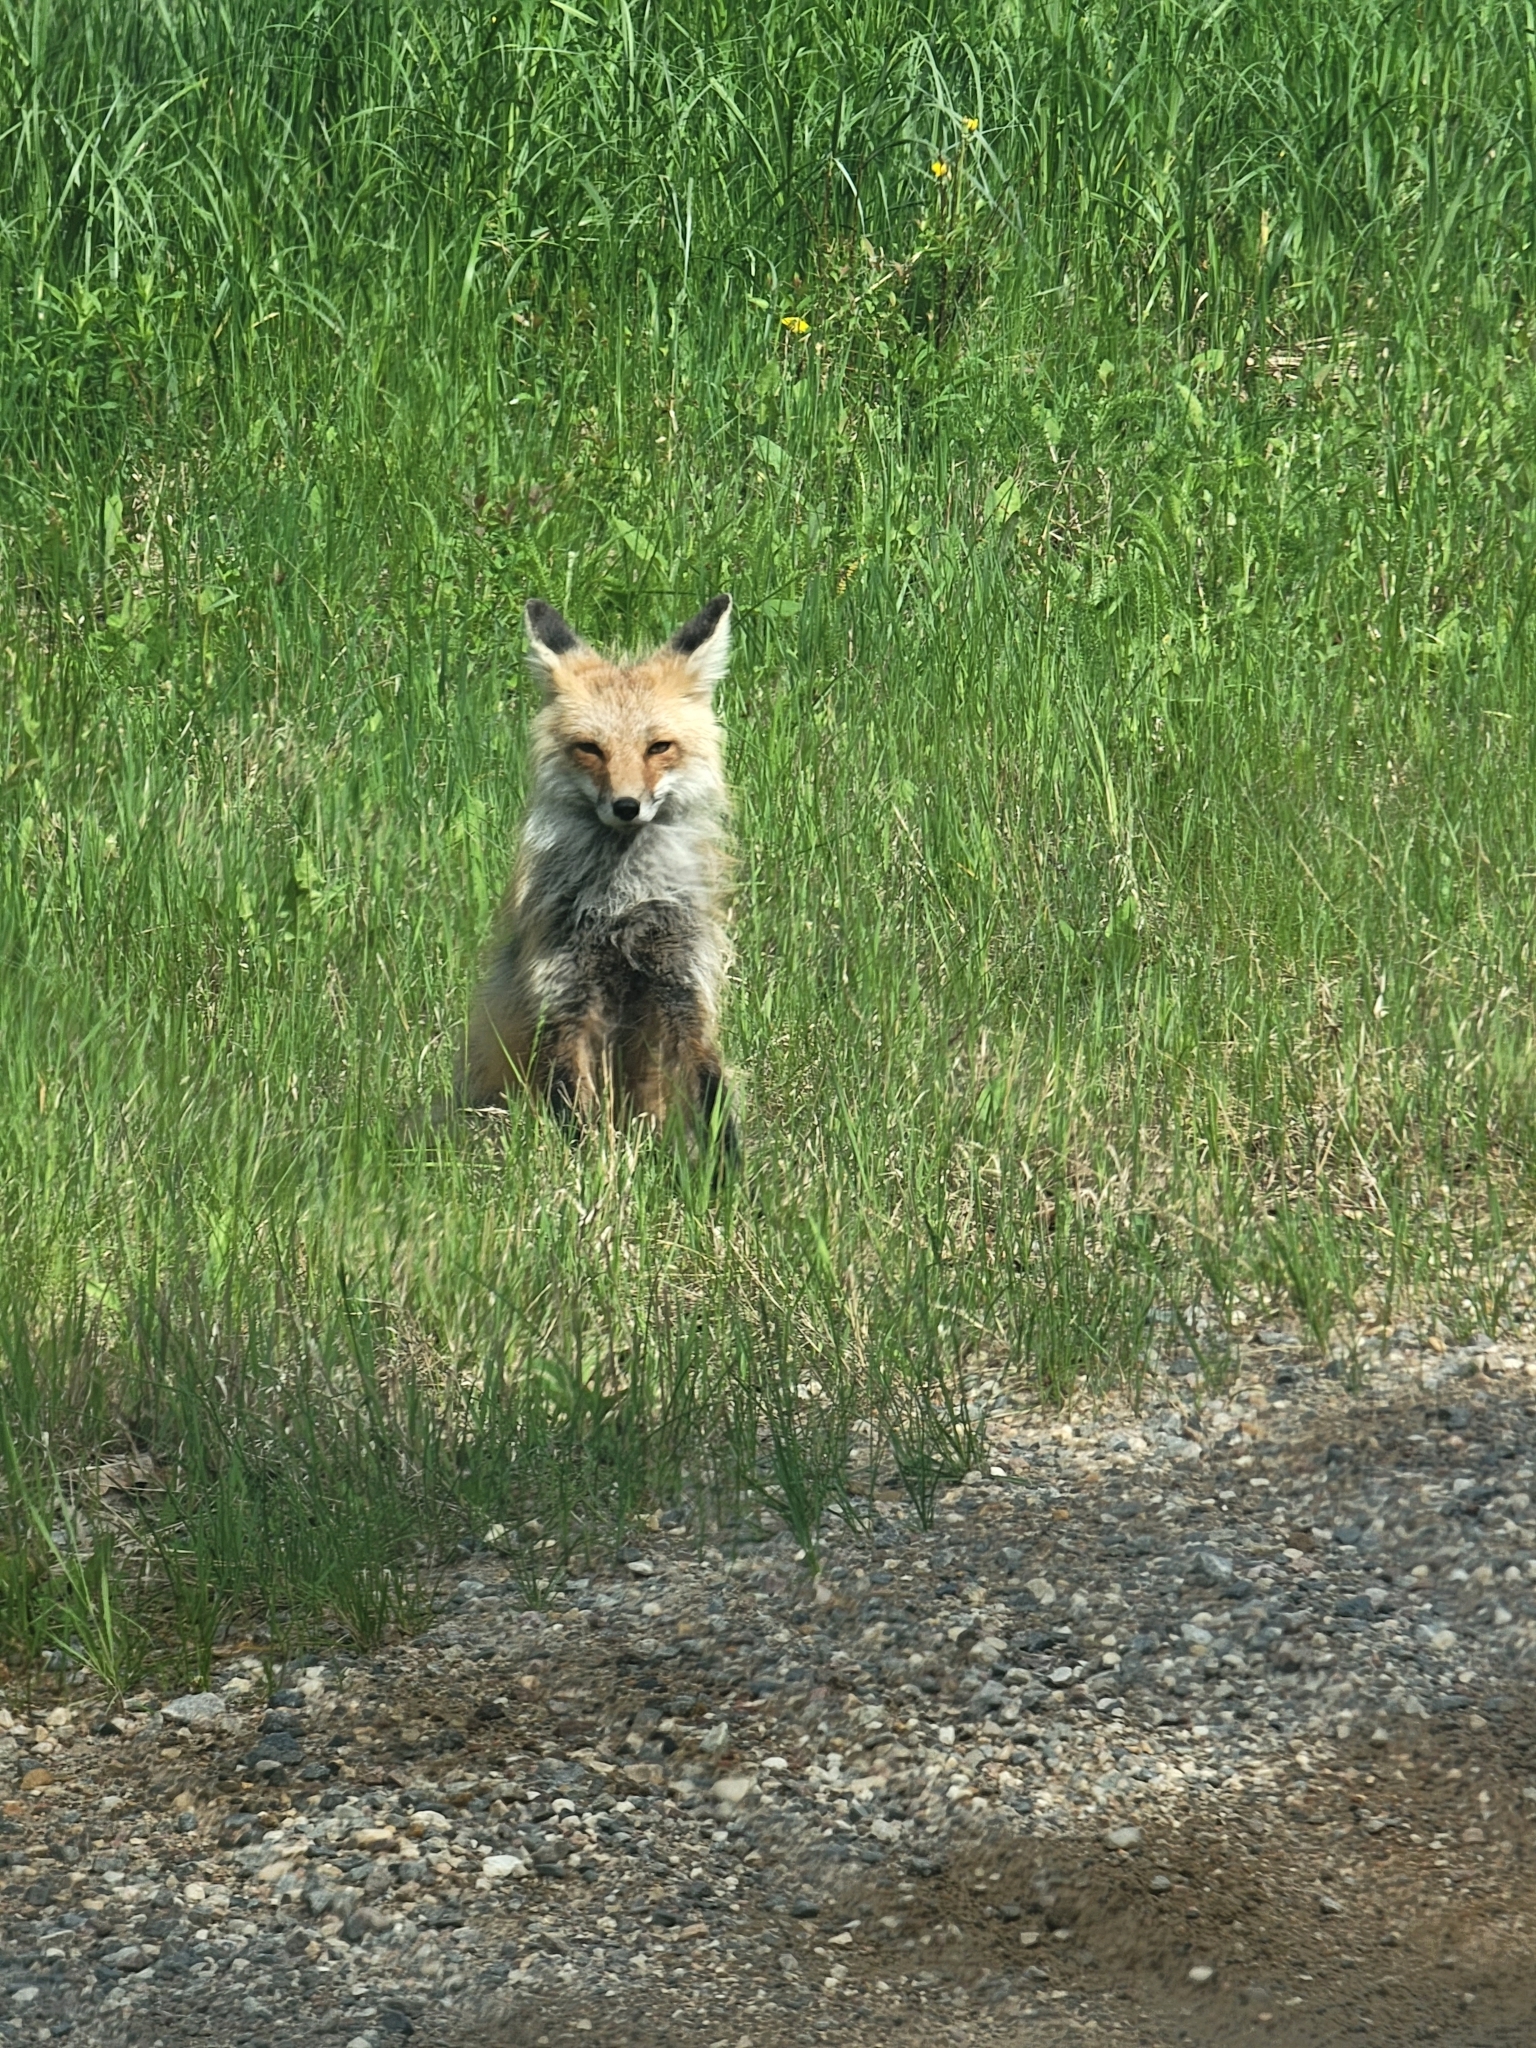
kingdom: Animalia
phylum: Chordata
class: Mammalia
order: Carnivora
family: Canidae
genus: Vulpes
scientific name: Vulpes vulpes
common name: Red fox
